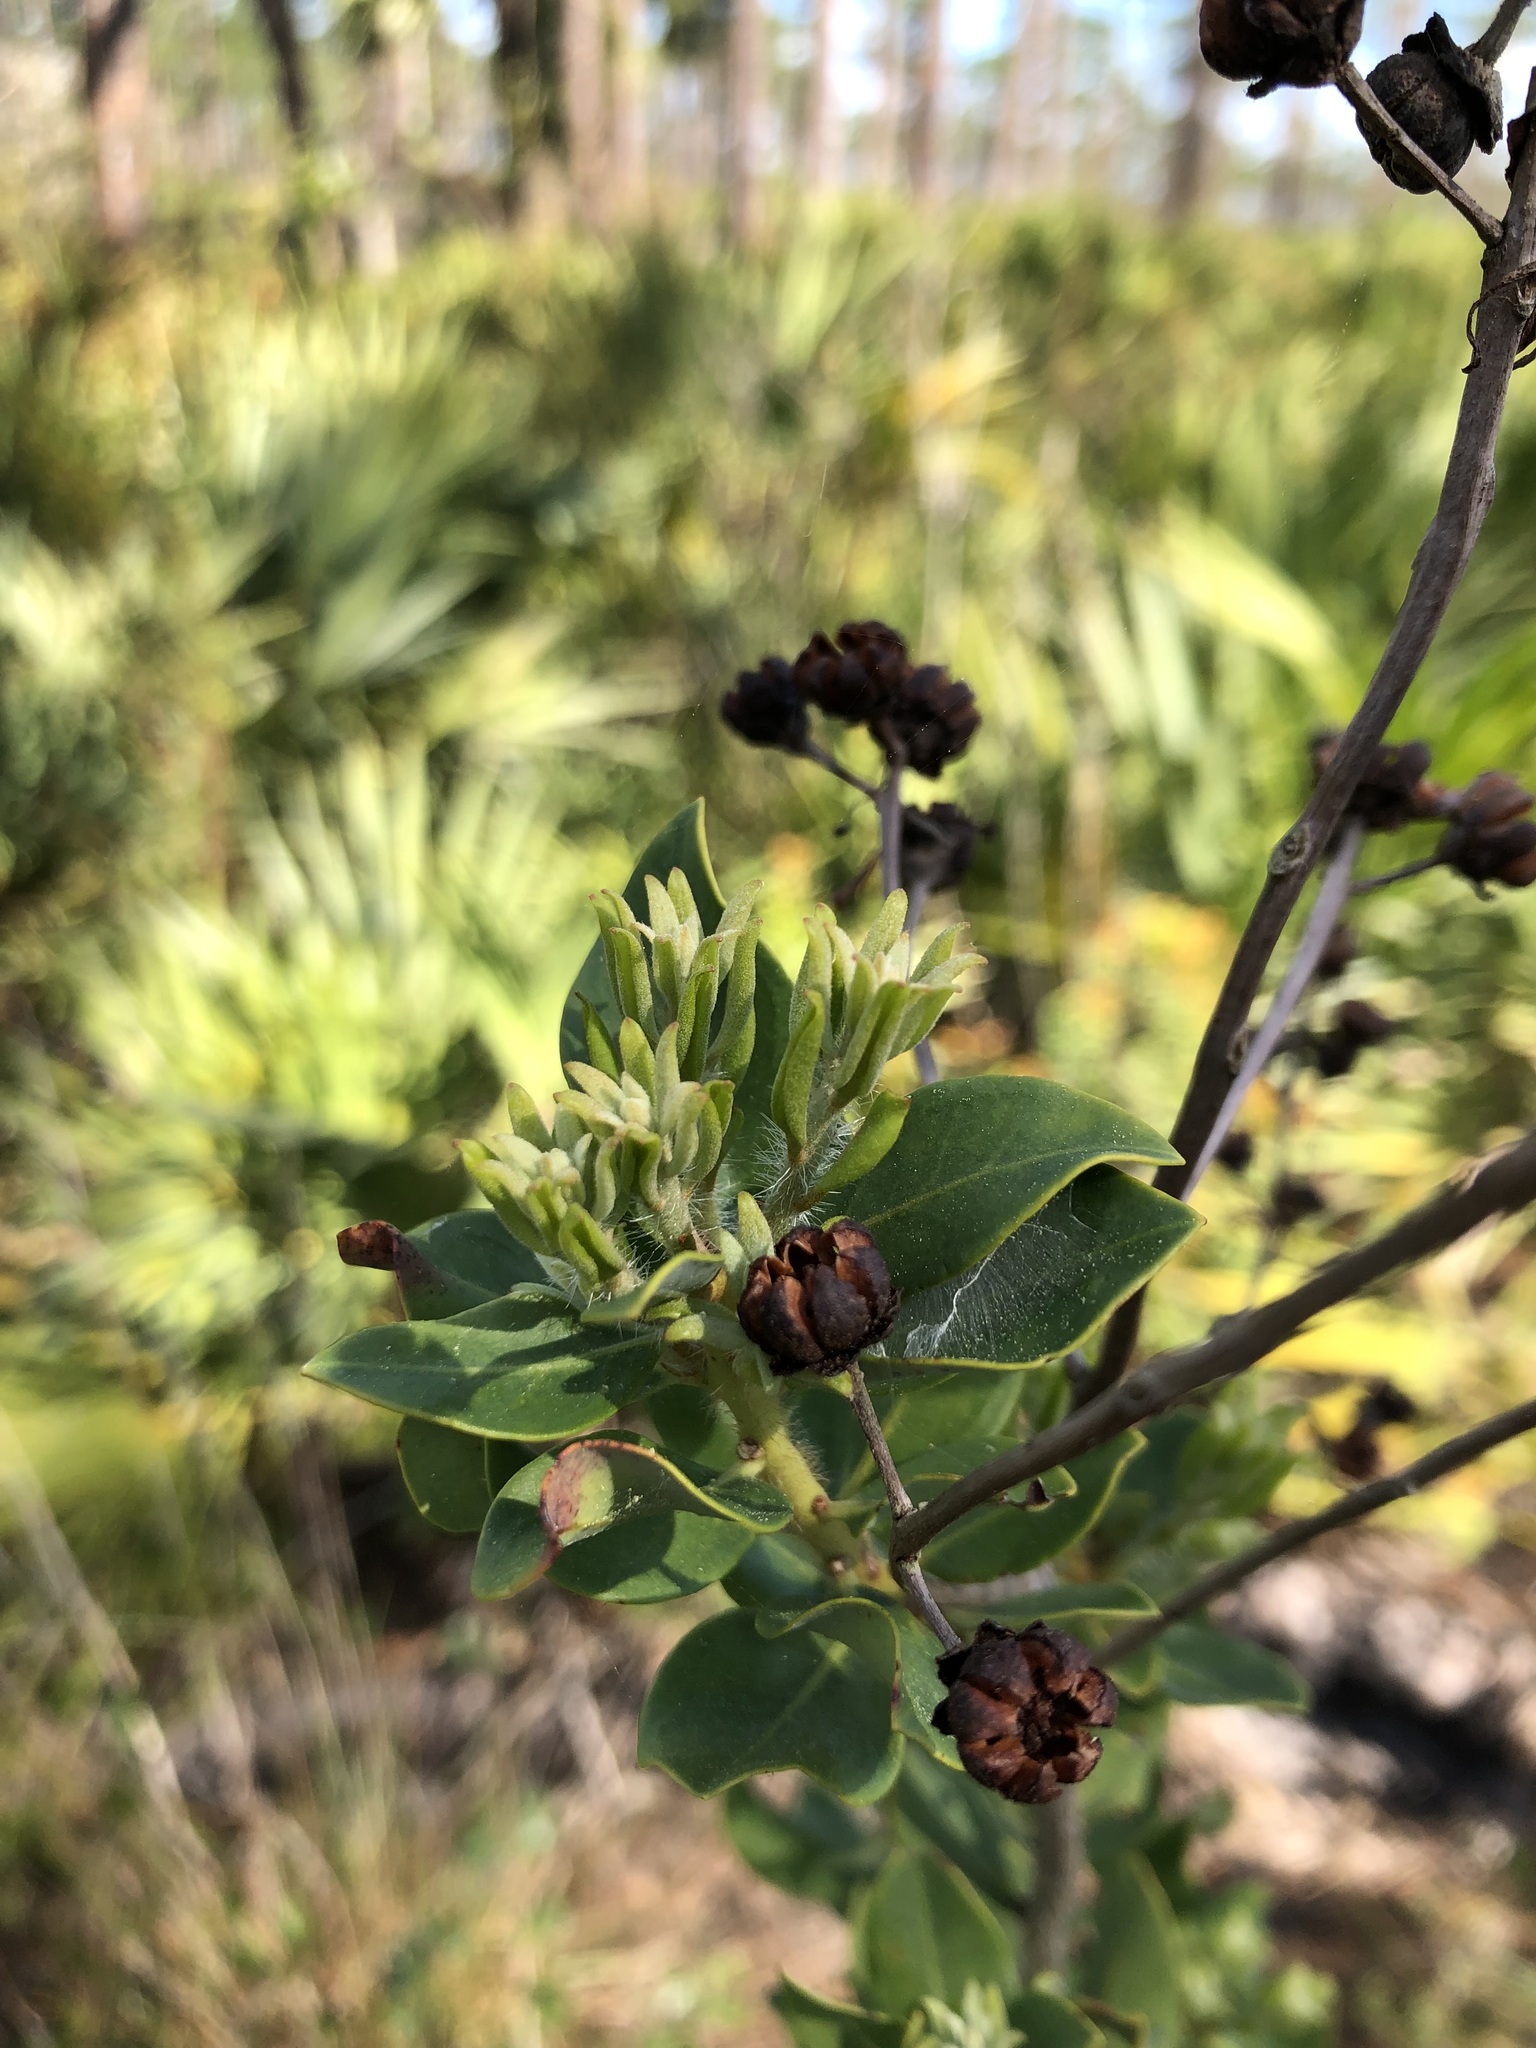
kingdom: Plantae
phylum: Tracheophyta
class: Magnoliopsida
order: Ericales
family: Ericaceae
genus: Bejaria
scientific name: Bejaria racemosa
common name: Tarflower
